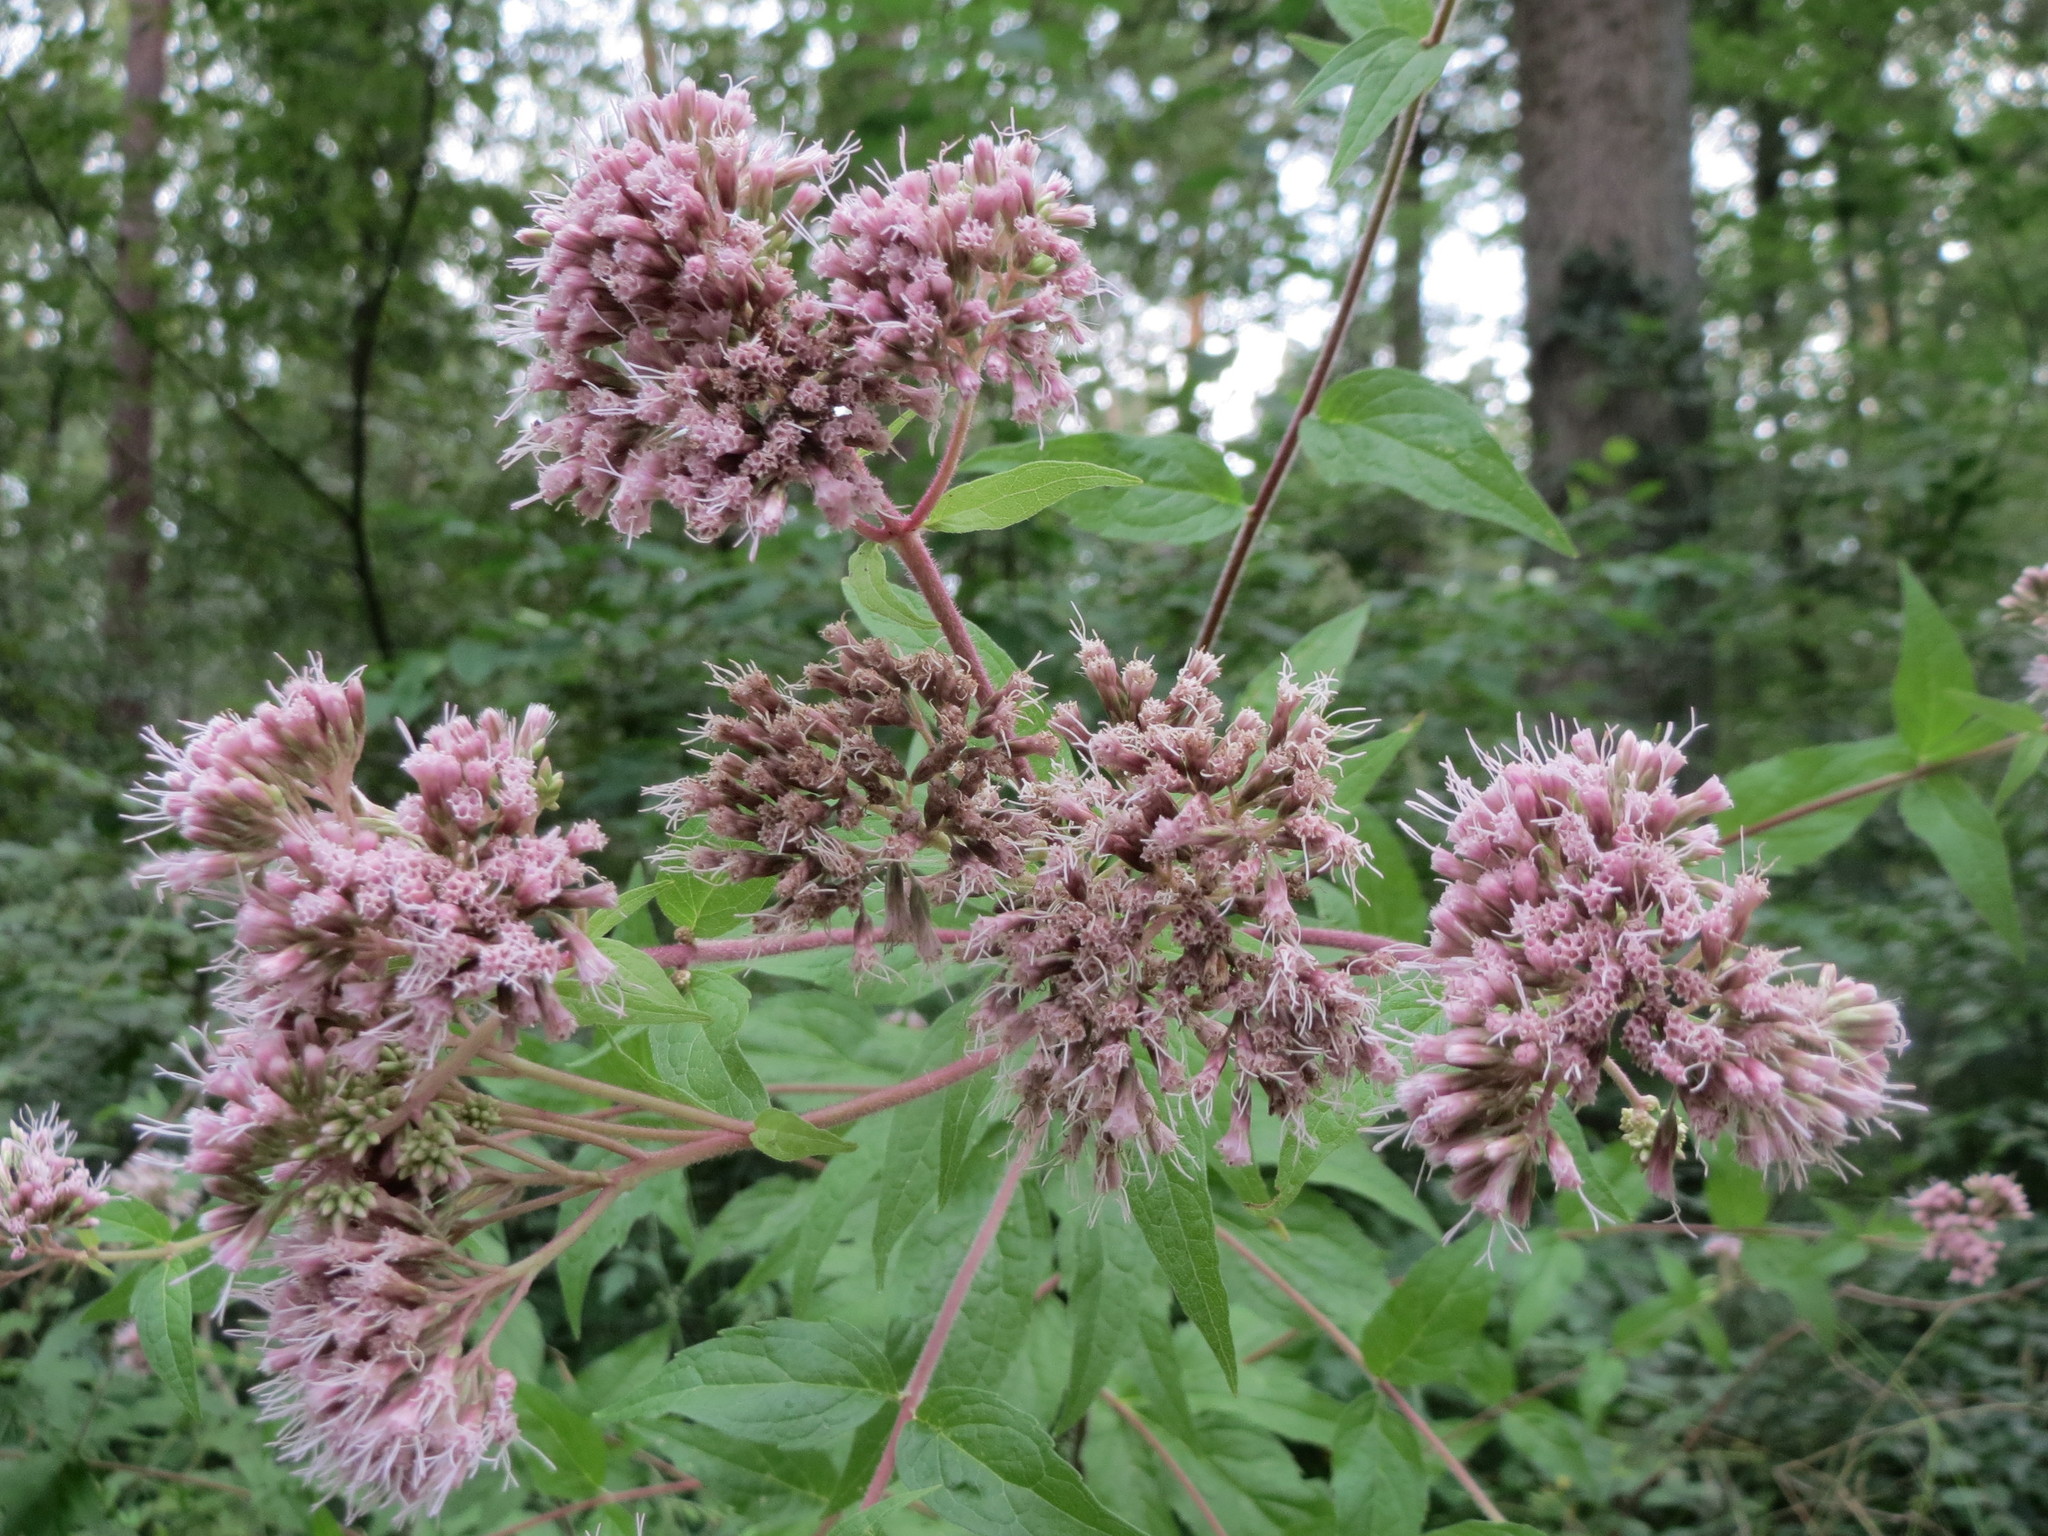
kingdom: Plantae
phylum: Tracheophyta
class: Magnoliopsida
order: Asterales
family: Asteraceae
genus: Eupatorium
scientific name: Eupatorium cannabinum
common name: Hemp-agrimony
